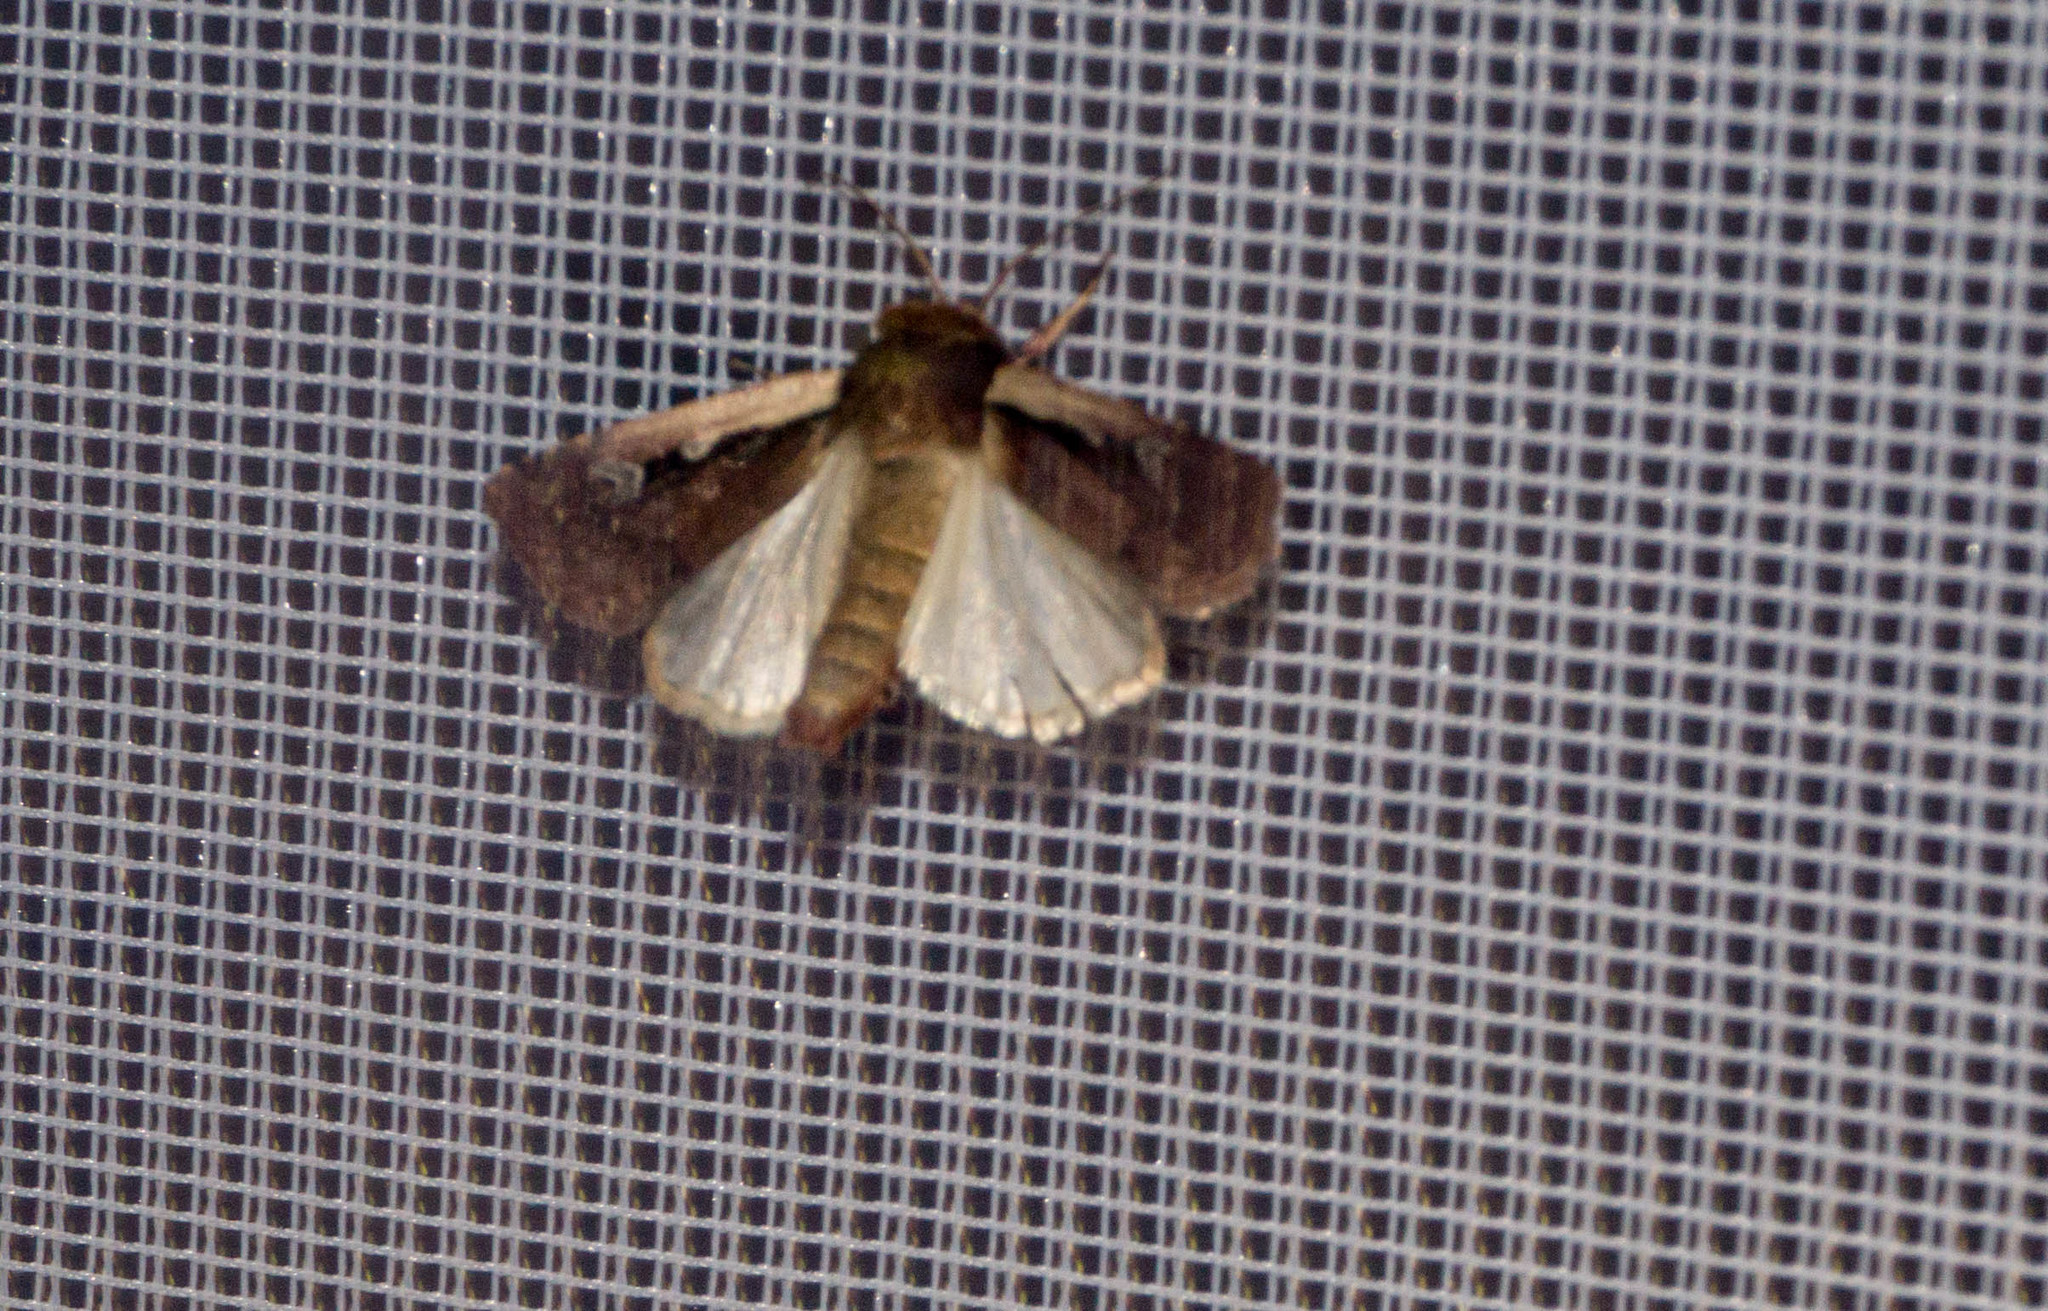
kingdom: Animalia
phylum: Arthropoda
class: Insecta
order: Lepidoptera
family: Noctuidae
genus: Ochropleura
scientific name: Ochropleura plecta
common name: Flame shoulder
